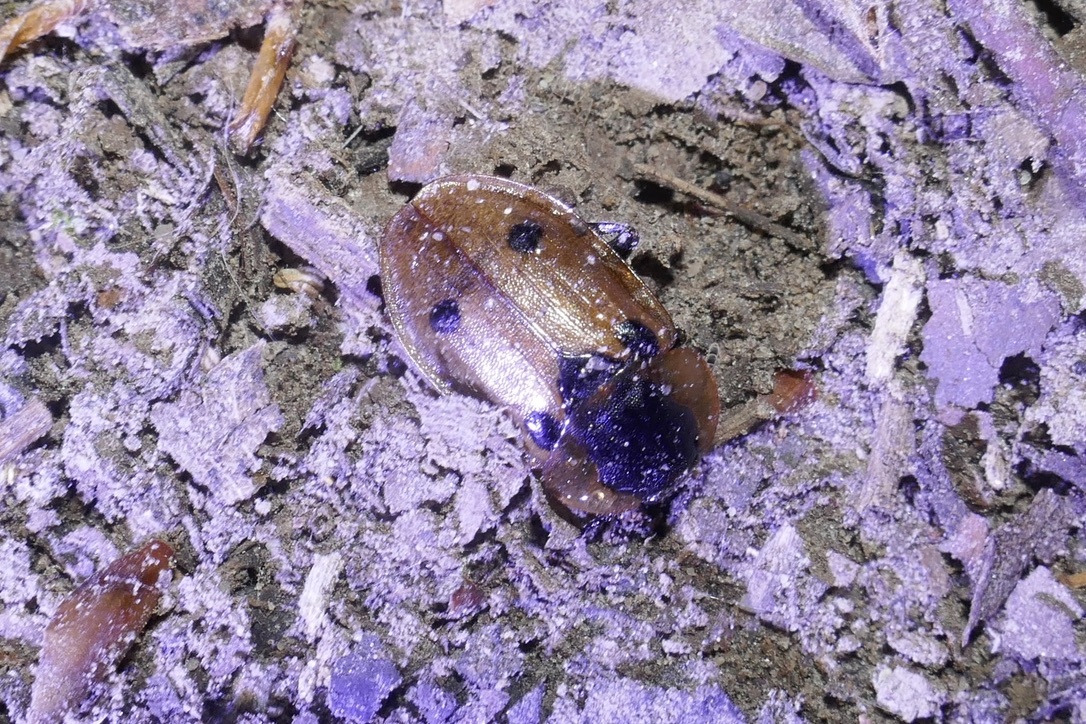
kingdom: Animalia
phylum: Arthropoda
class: Insecta
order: Coleoptera
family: Staphylinidae
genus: Dendroxena
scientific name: Dendroxena quadrimaculata
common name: Carrion beetle
